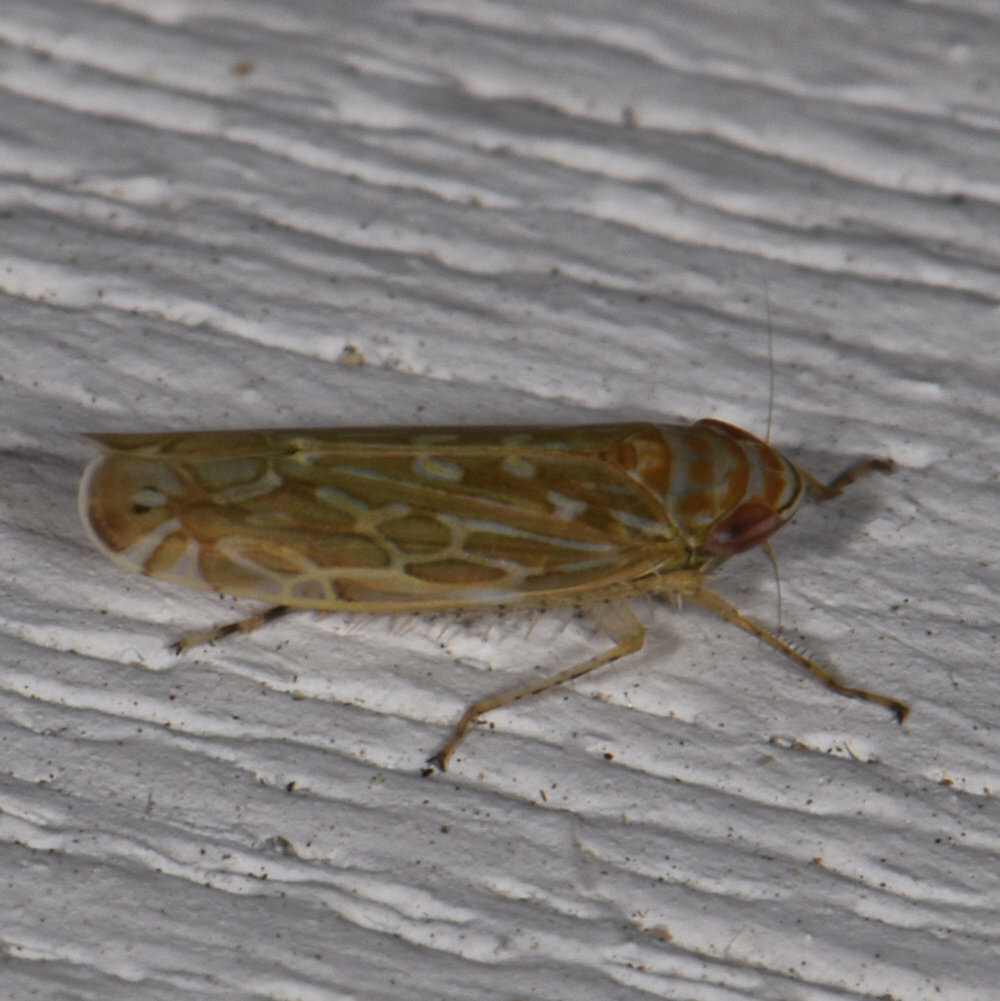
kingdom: Animalia
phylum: Arthropoda
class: Insecta
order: Hemiptera
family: Cicadellidae
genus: Paralimnus
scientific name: Paralimnus phragmitis
